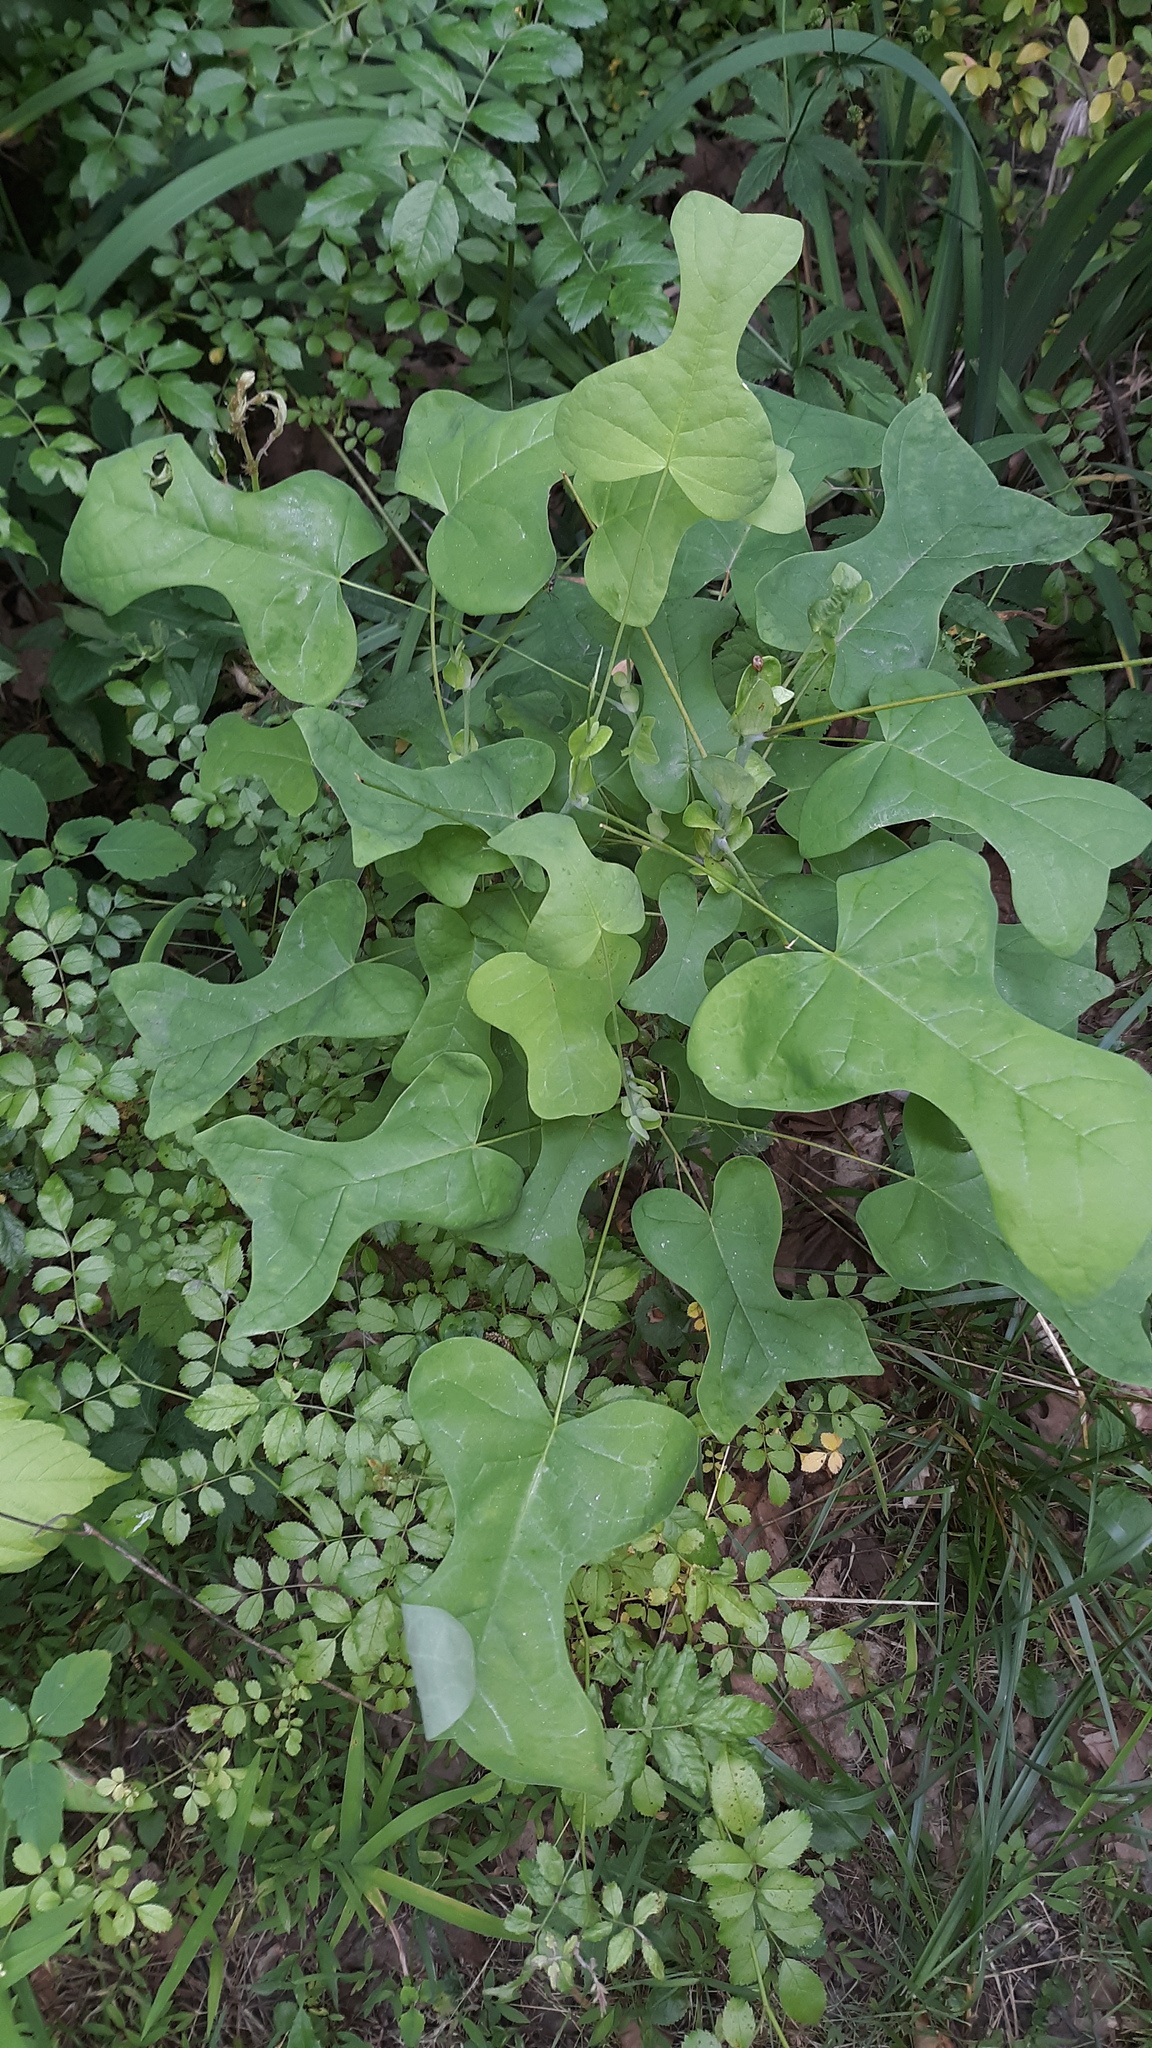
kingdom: Plantae
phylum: Tracheophyta
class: Magnoliopsida
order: Magnoliales
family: Magnoliaceae
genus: Liriodendron
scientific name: Liriodendron tulipifera
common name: Tulip tree
